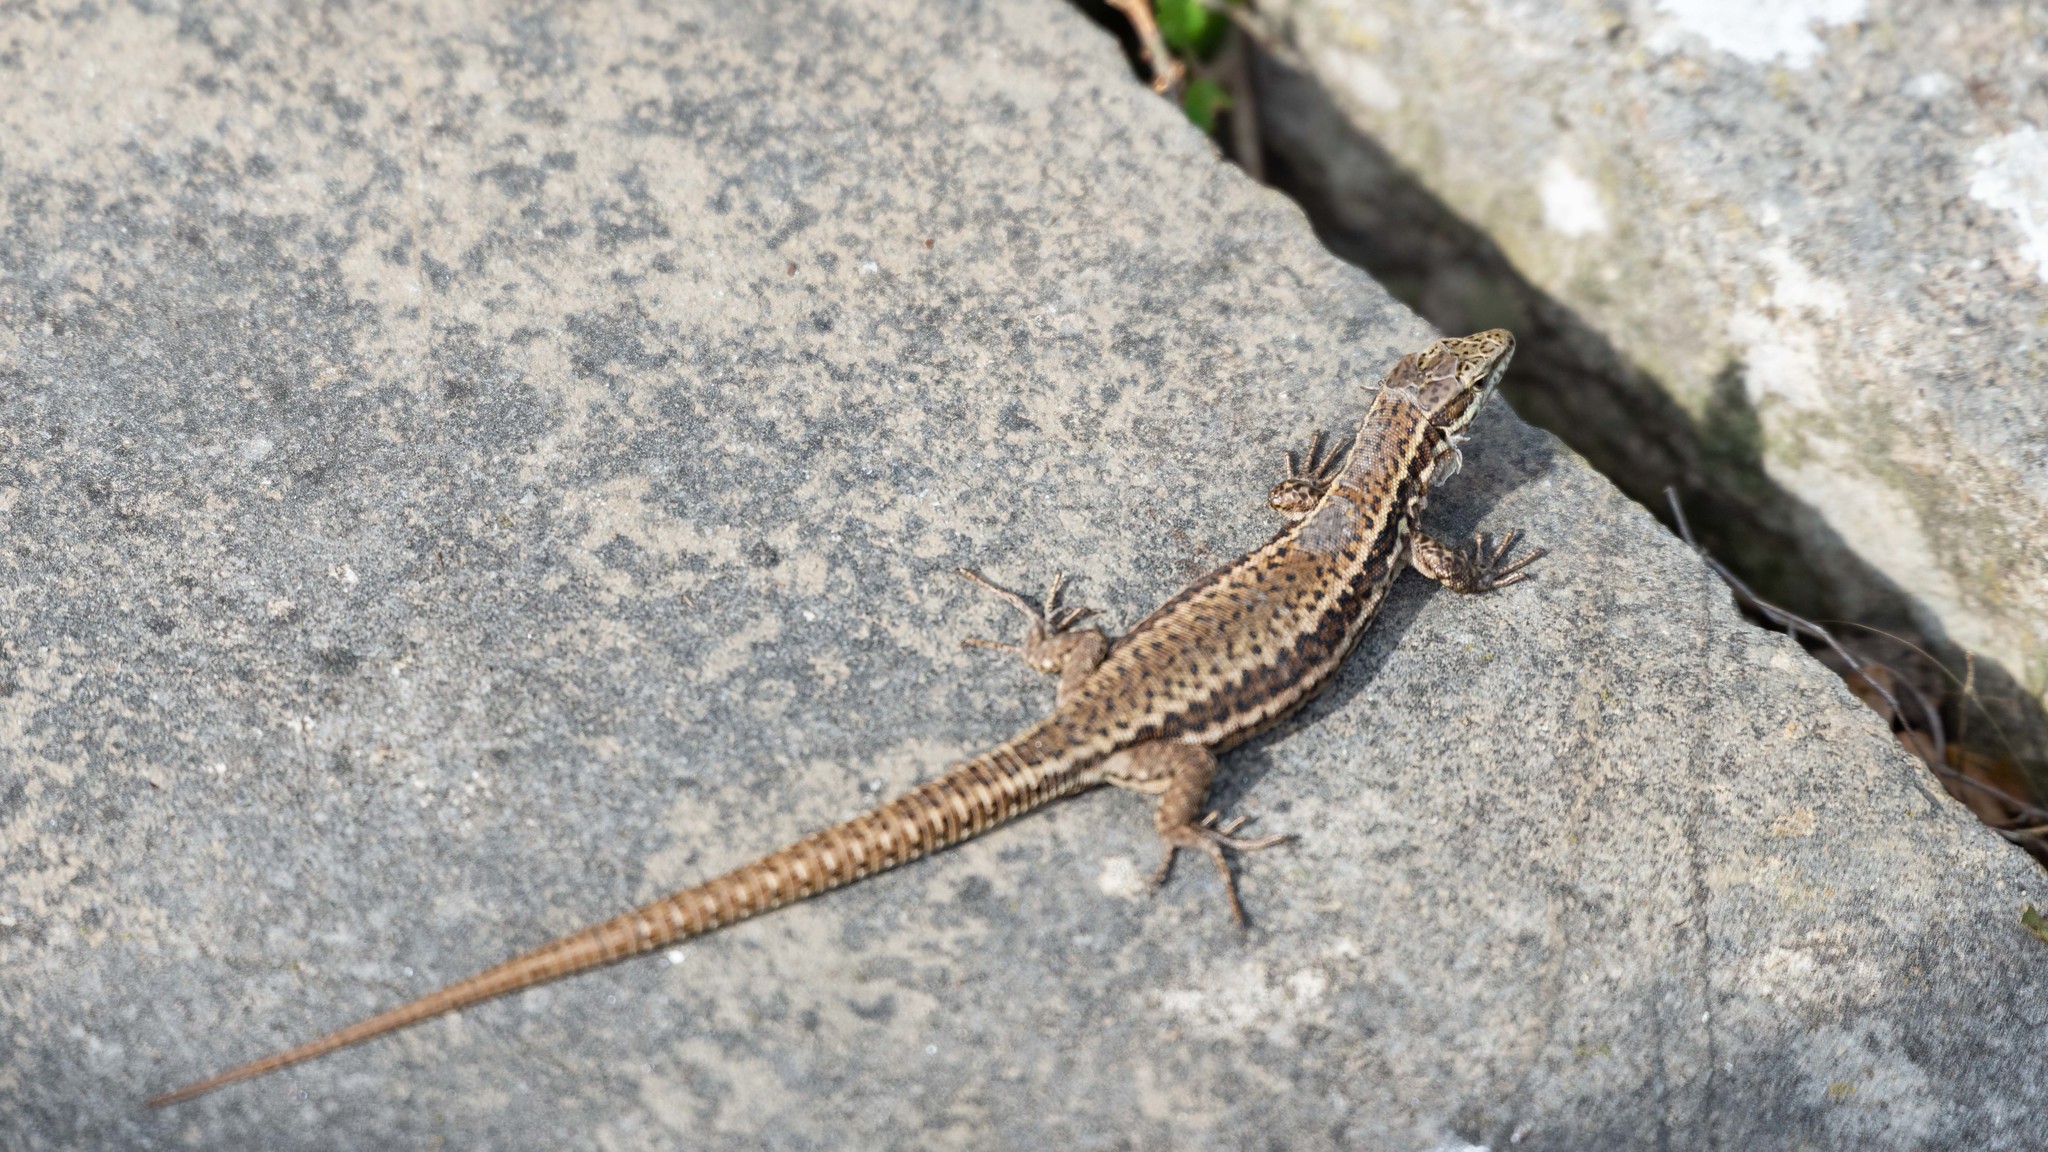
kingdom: Animalia
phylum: Chordata
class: Squamata
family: Lacertidae
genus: Podarcis
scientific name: Podarcis muralis
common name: Common wall lizard
